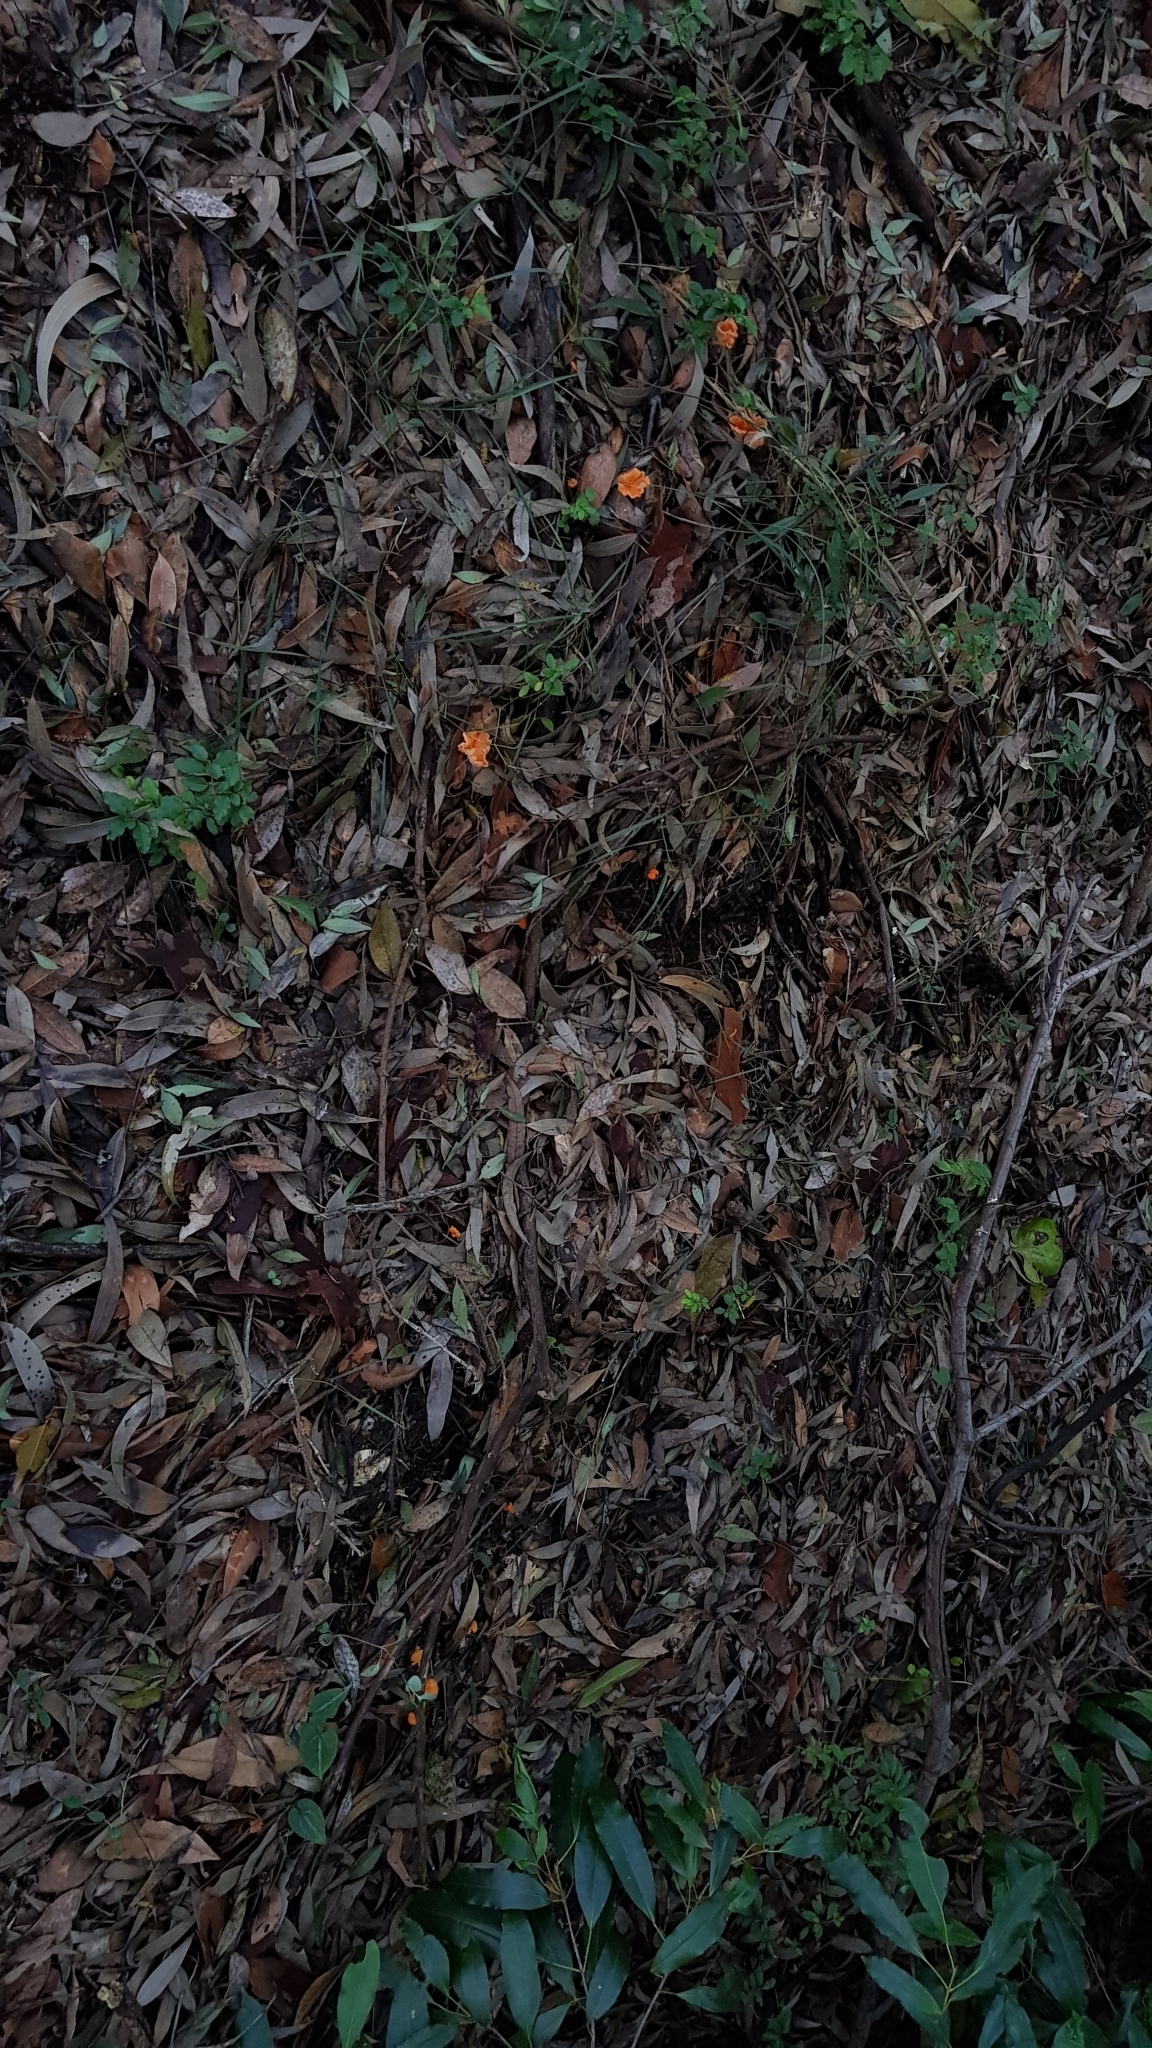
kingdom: Fungi
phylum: Basidiomycota
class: Agaricomycetes
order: Cantharellales
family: Hydnaceae
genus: Cantharellus
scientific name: Cantharellus
